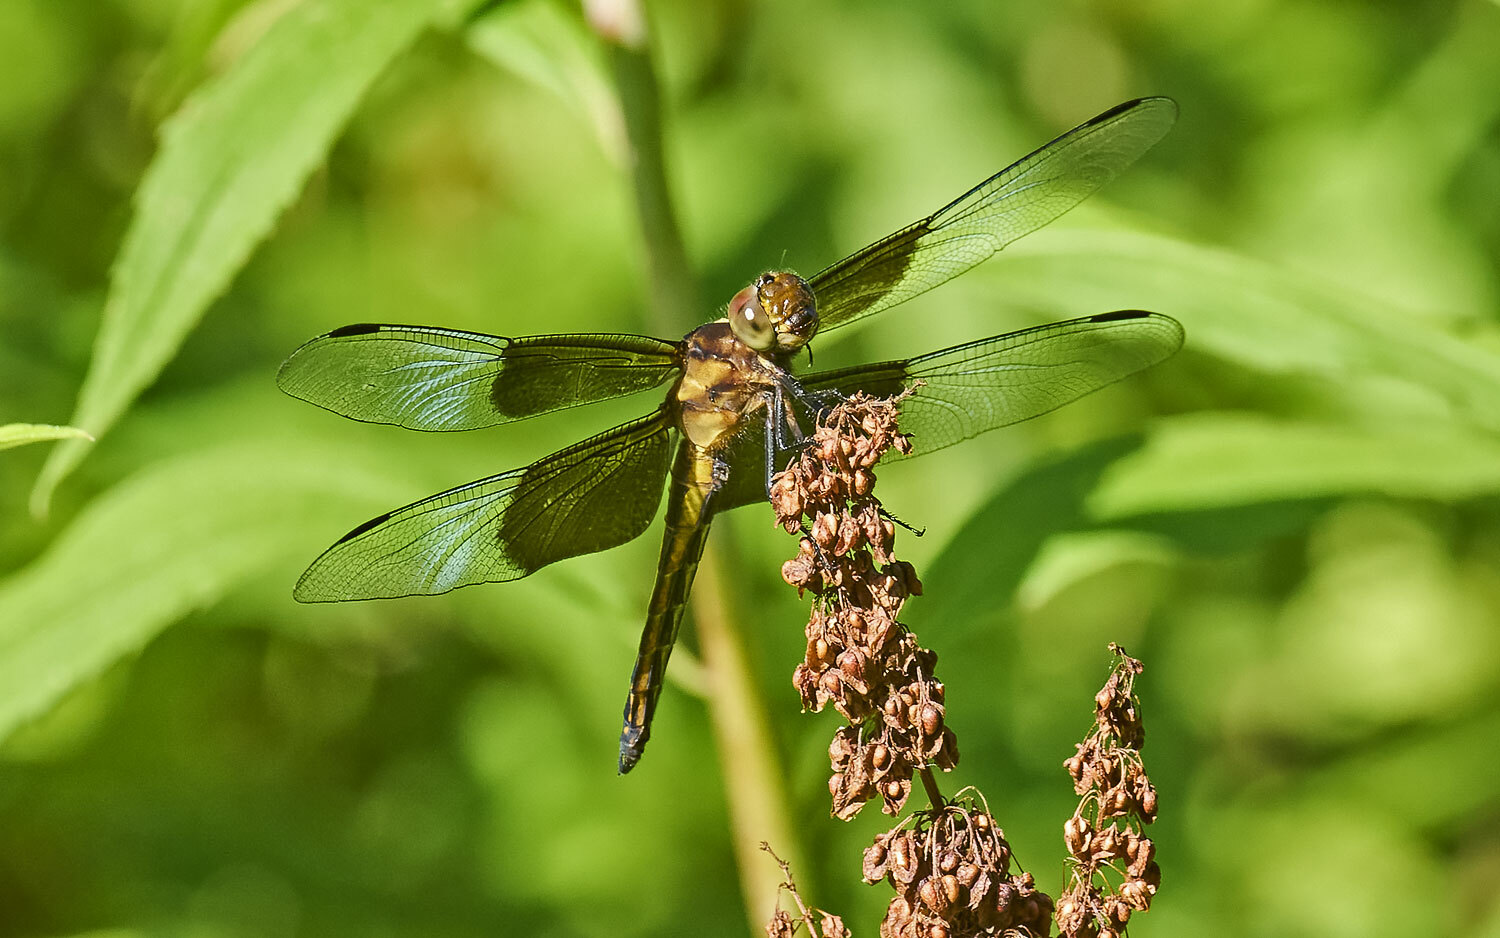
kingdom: Animalia
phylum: Arthropoda
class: Insecta
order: Odonata
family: Libellulidae
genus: Libellula
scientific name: Libellula luctuosa
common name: Widow skimmer
